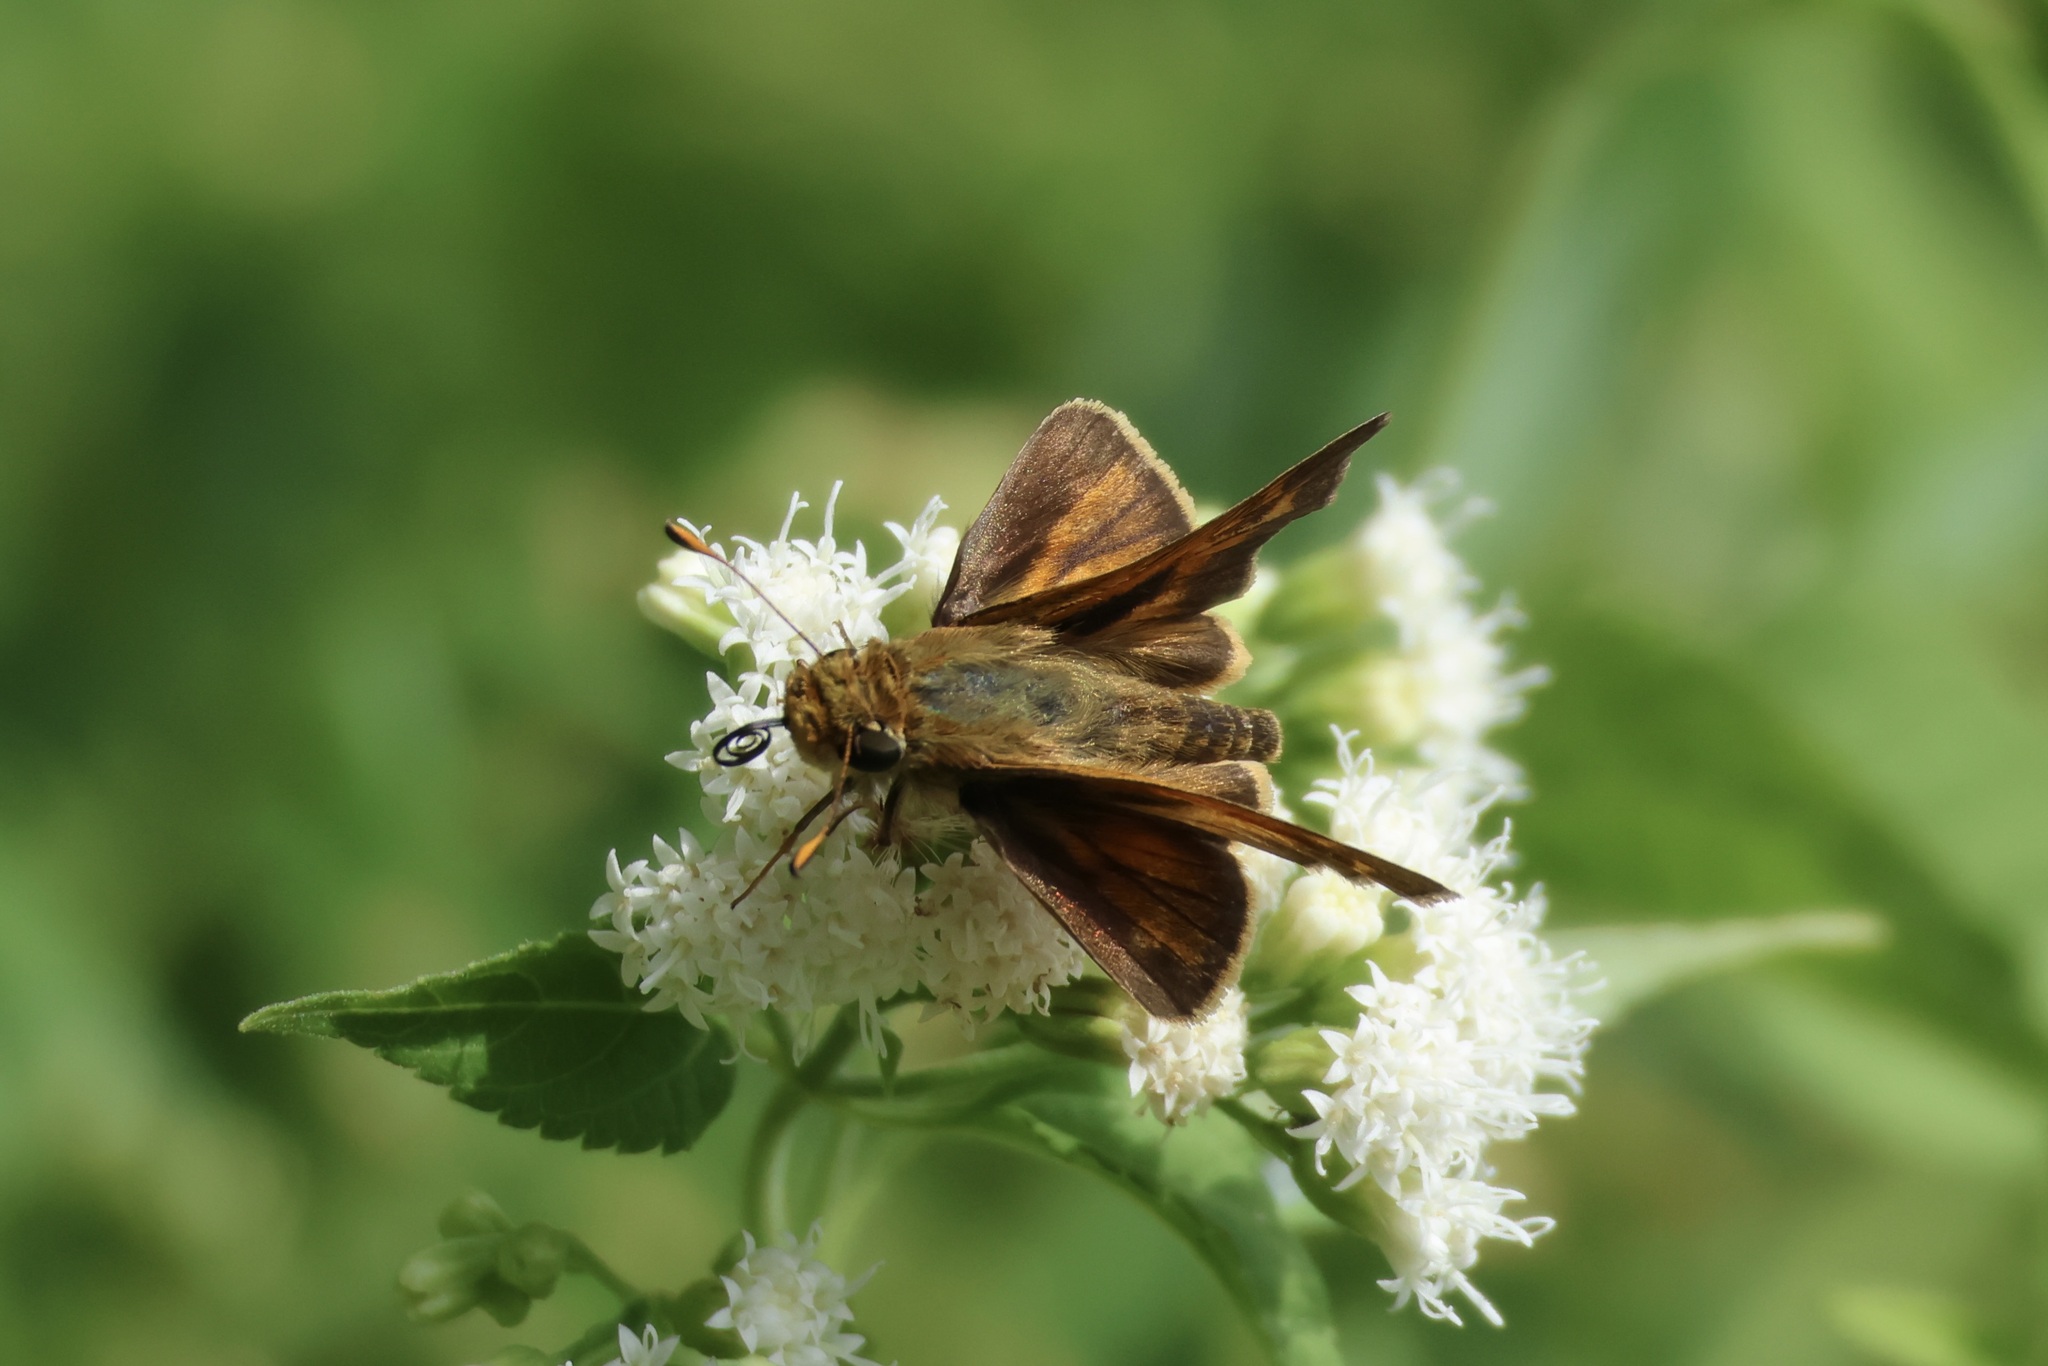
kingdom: Animalia
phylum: Arthropoda
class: Insecta
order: Lepidoptera
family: Hesperiidae
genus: Atalopedes
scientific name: Atalopedes
